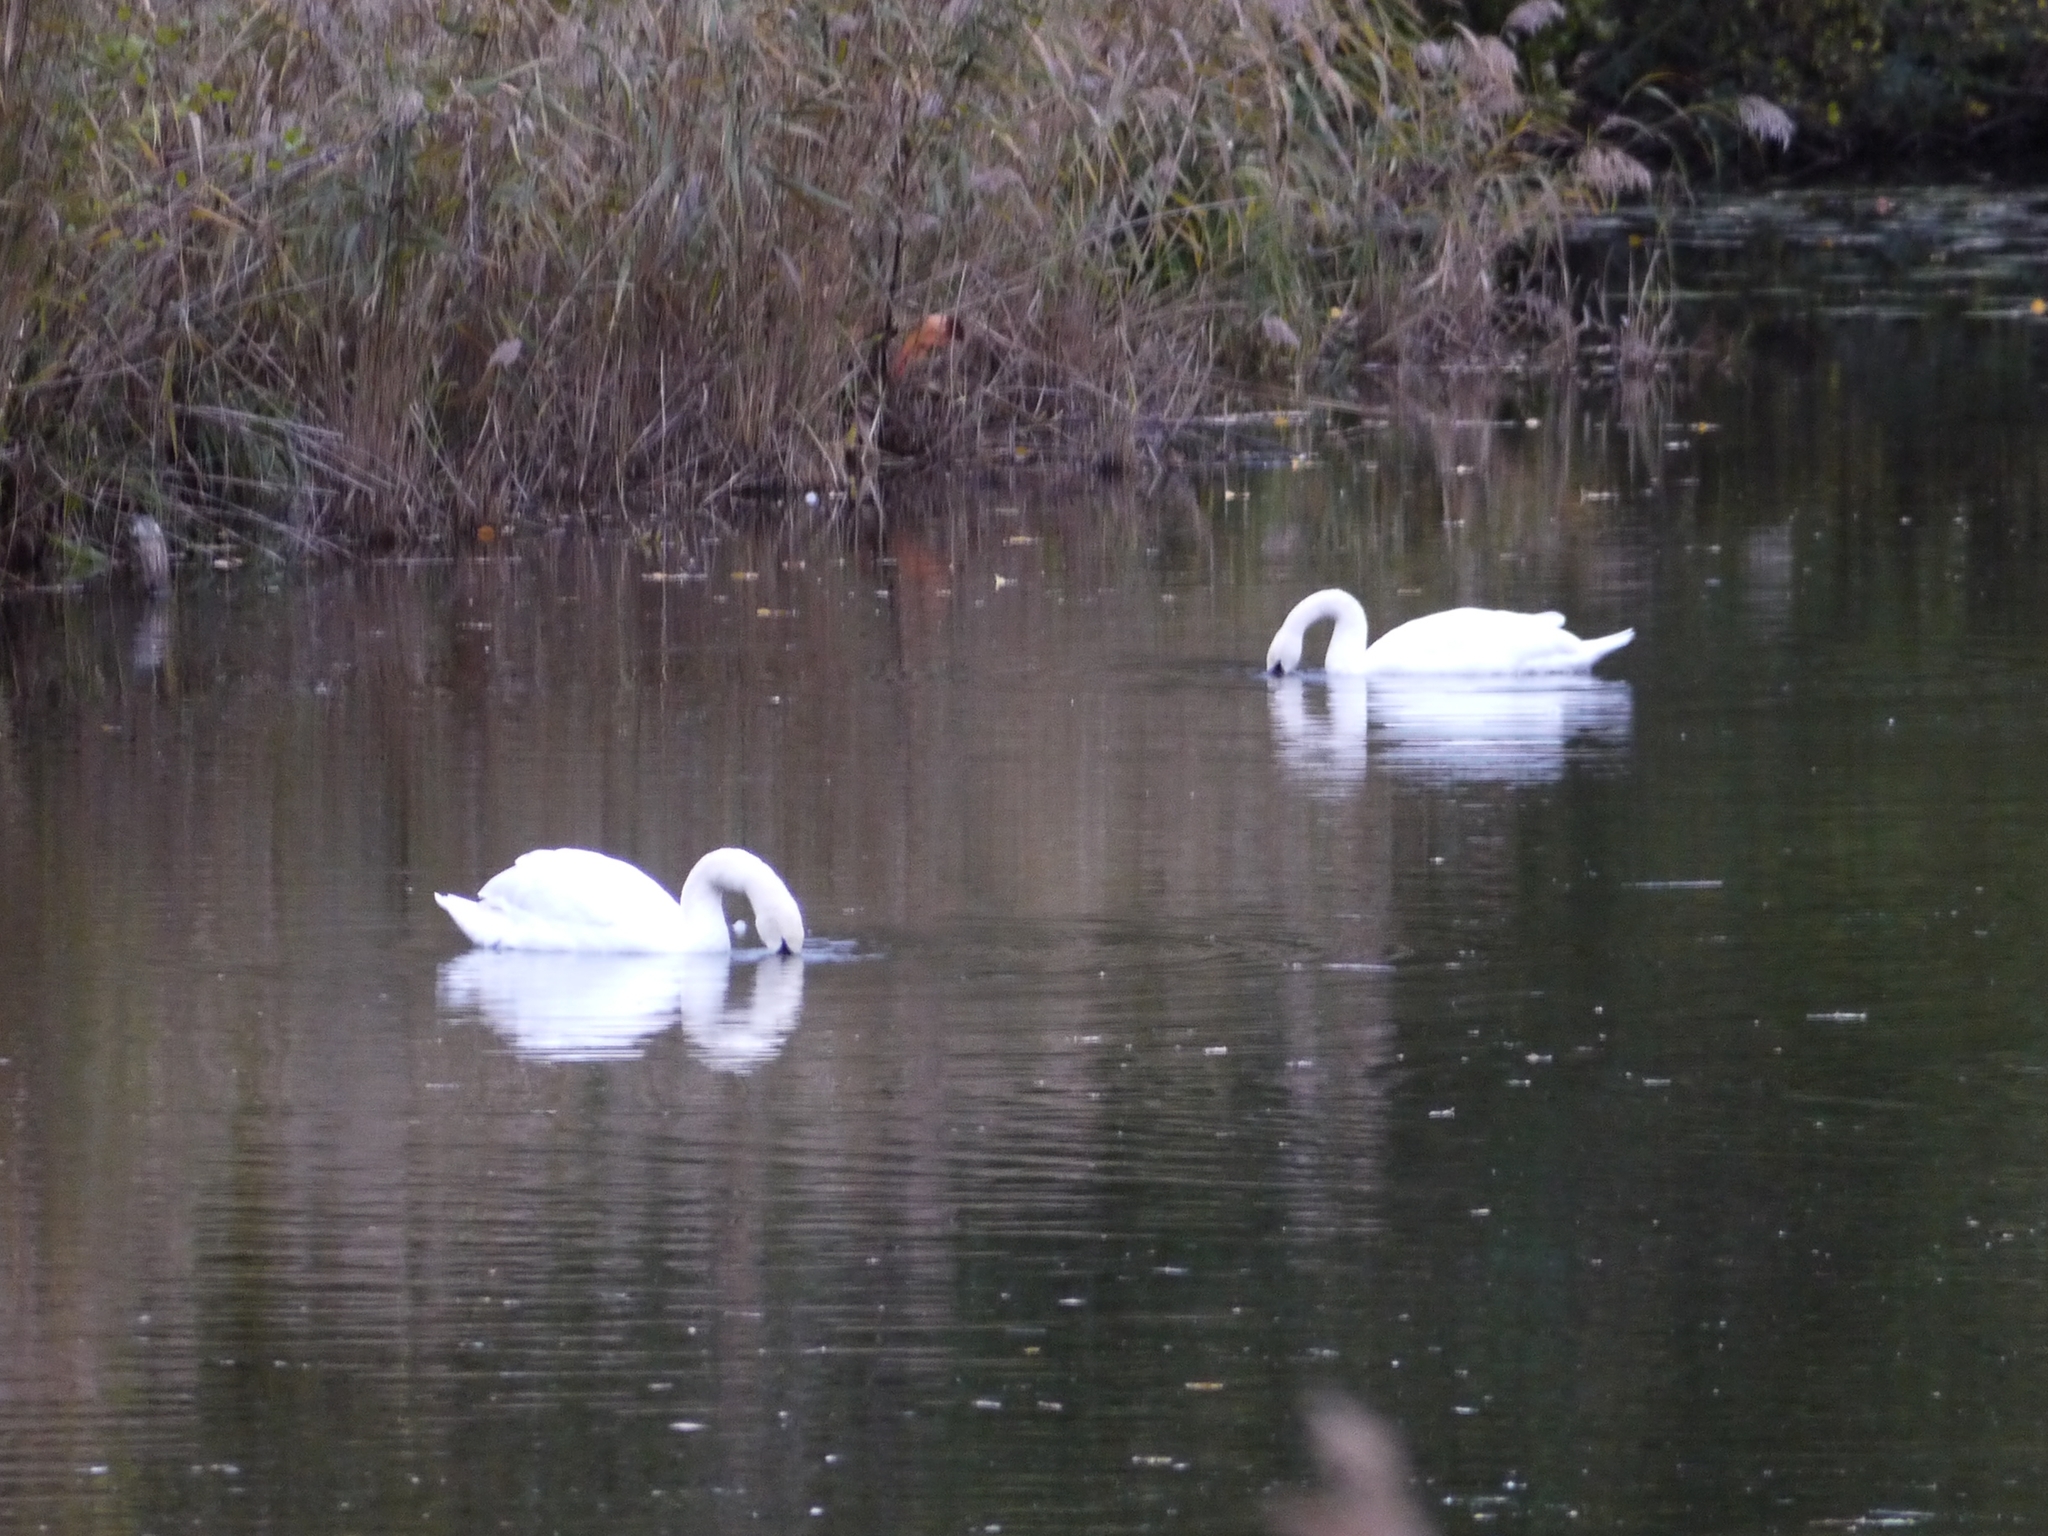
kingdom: Animalia
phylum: Chordata
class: Aves
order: Anseriformes
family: Anatidae
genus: Cygnus
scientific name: Cygnus olor
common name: Mute swan
